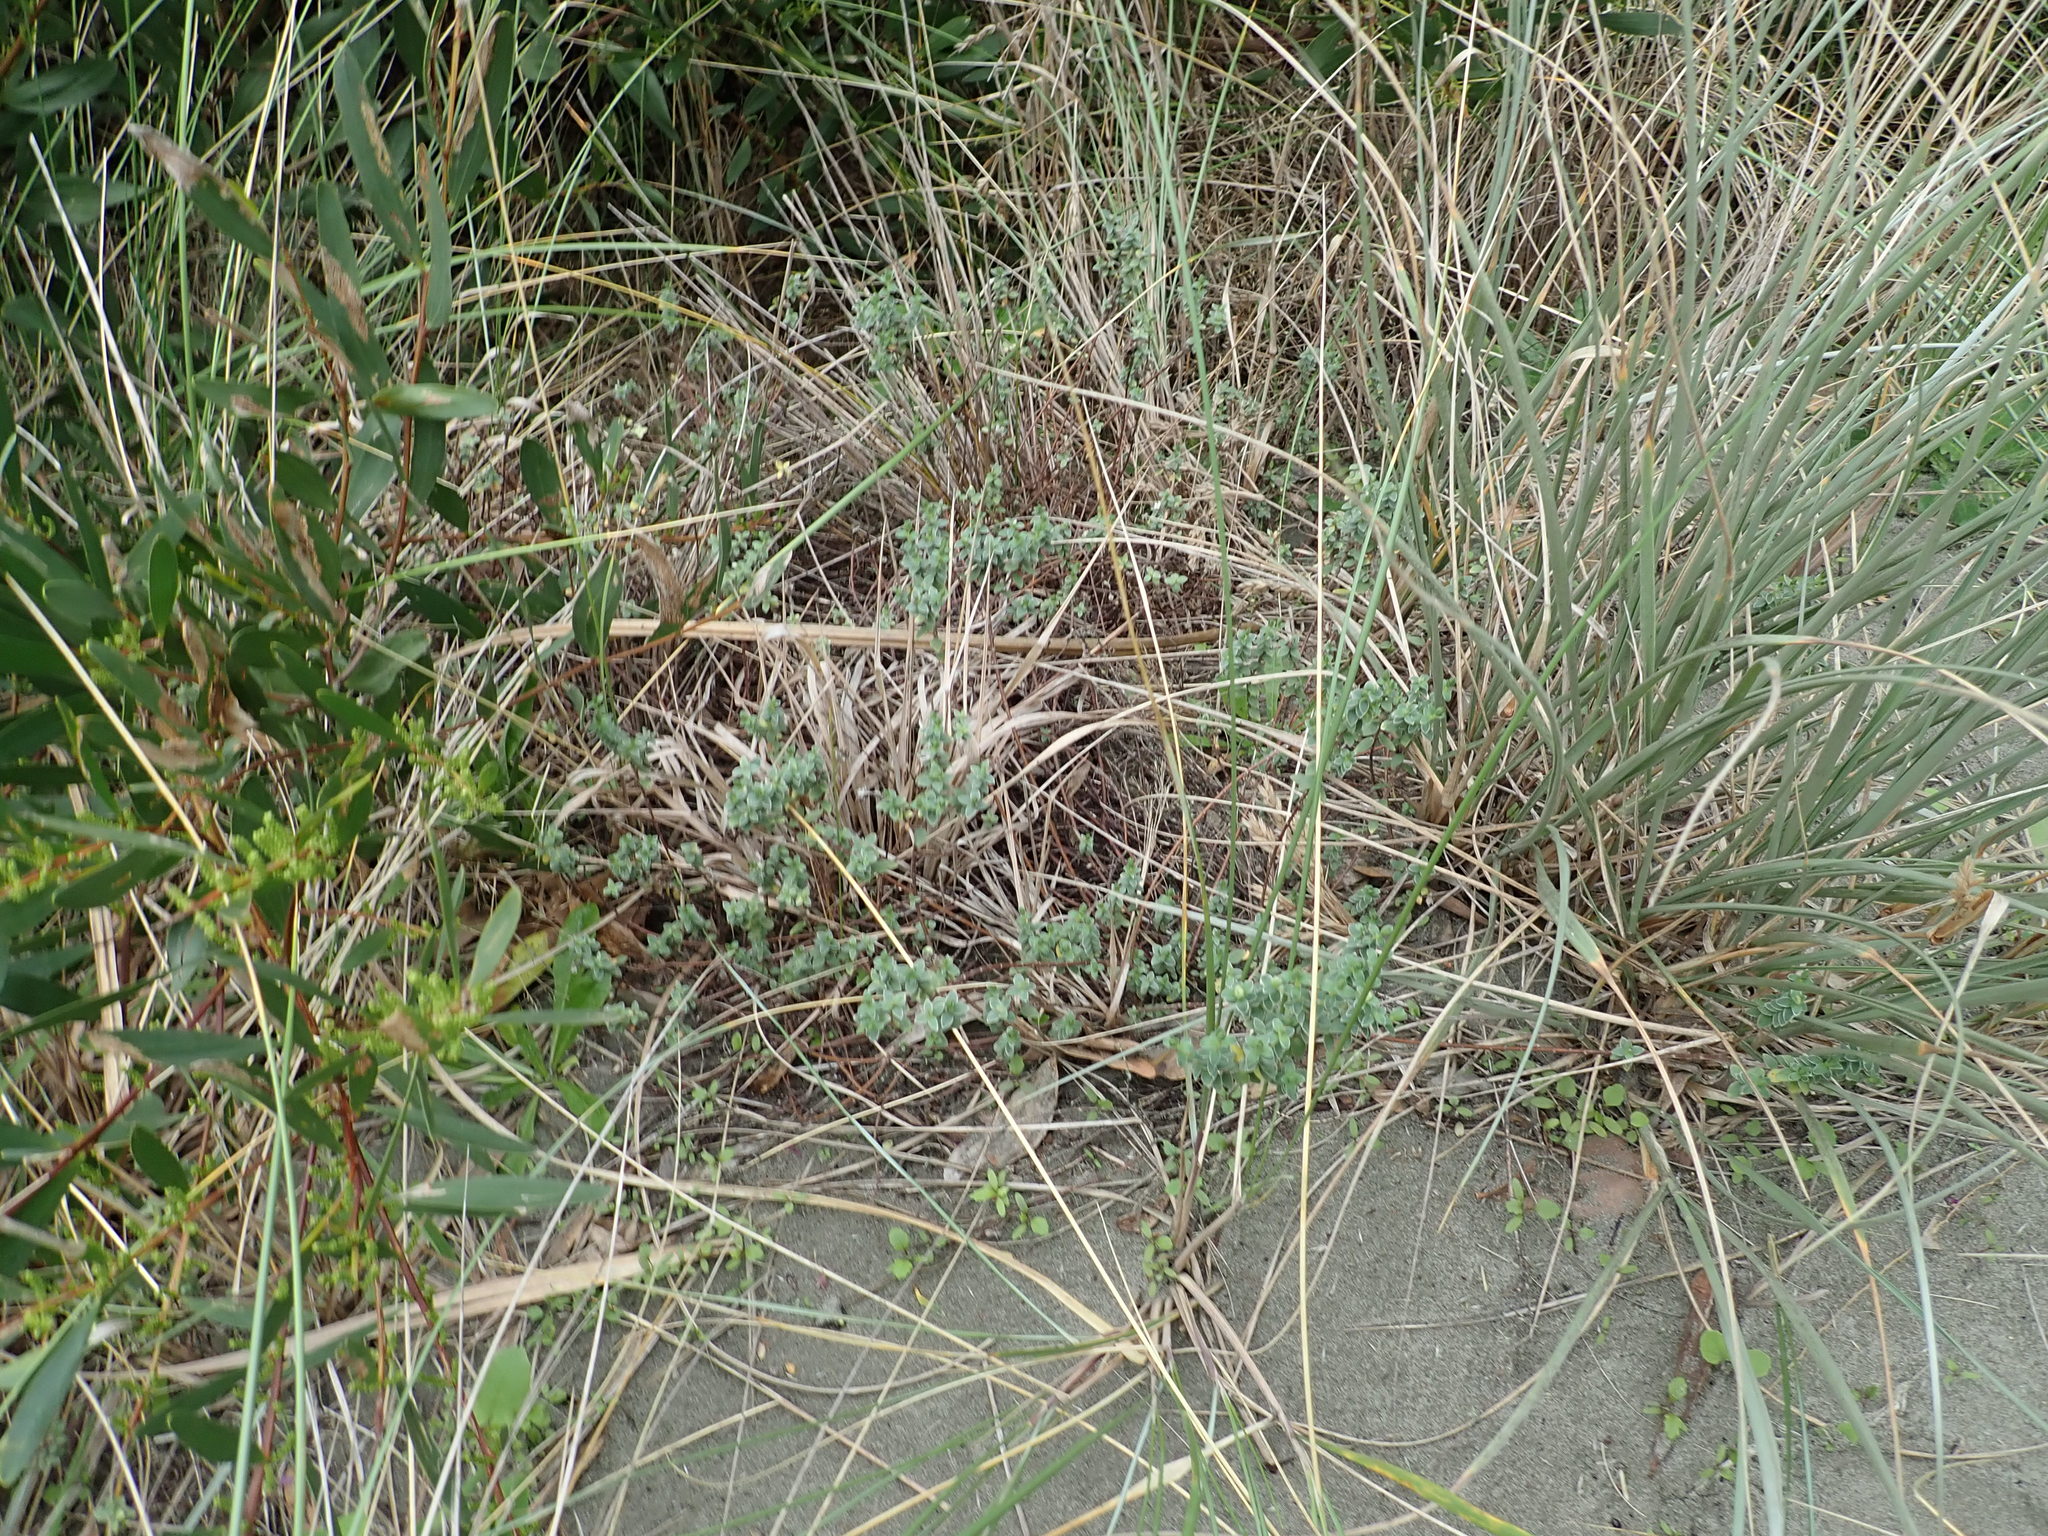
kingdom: Plantae
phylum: Tracheophyta
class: Magnoliopsida
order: Malvales
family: Thymelaeaceae
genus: Pimelea
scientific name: Pimelea villosa
